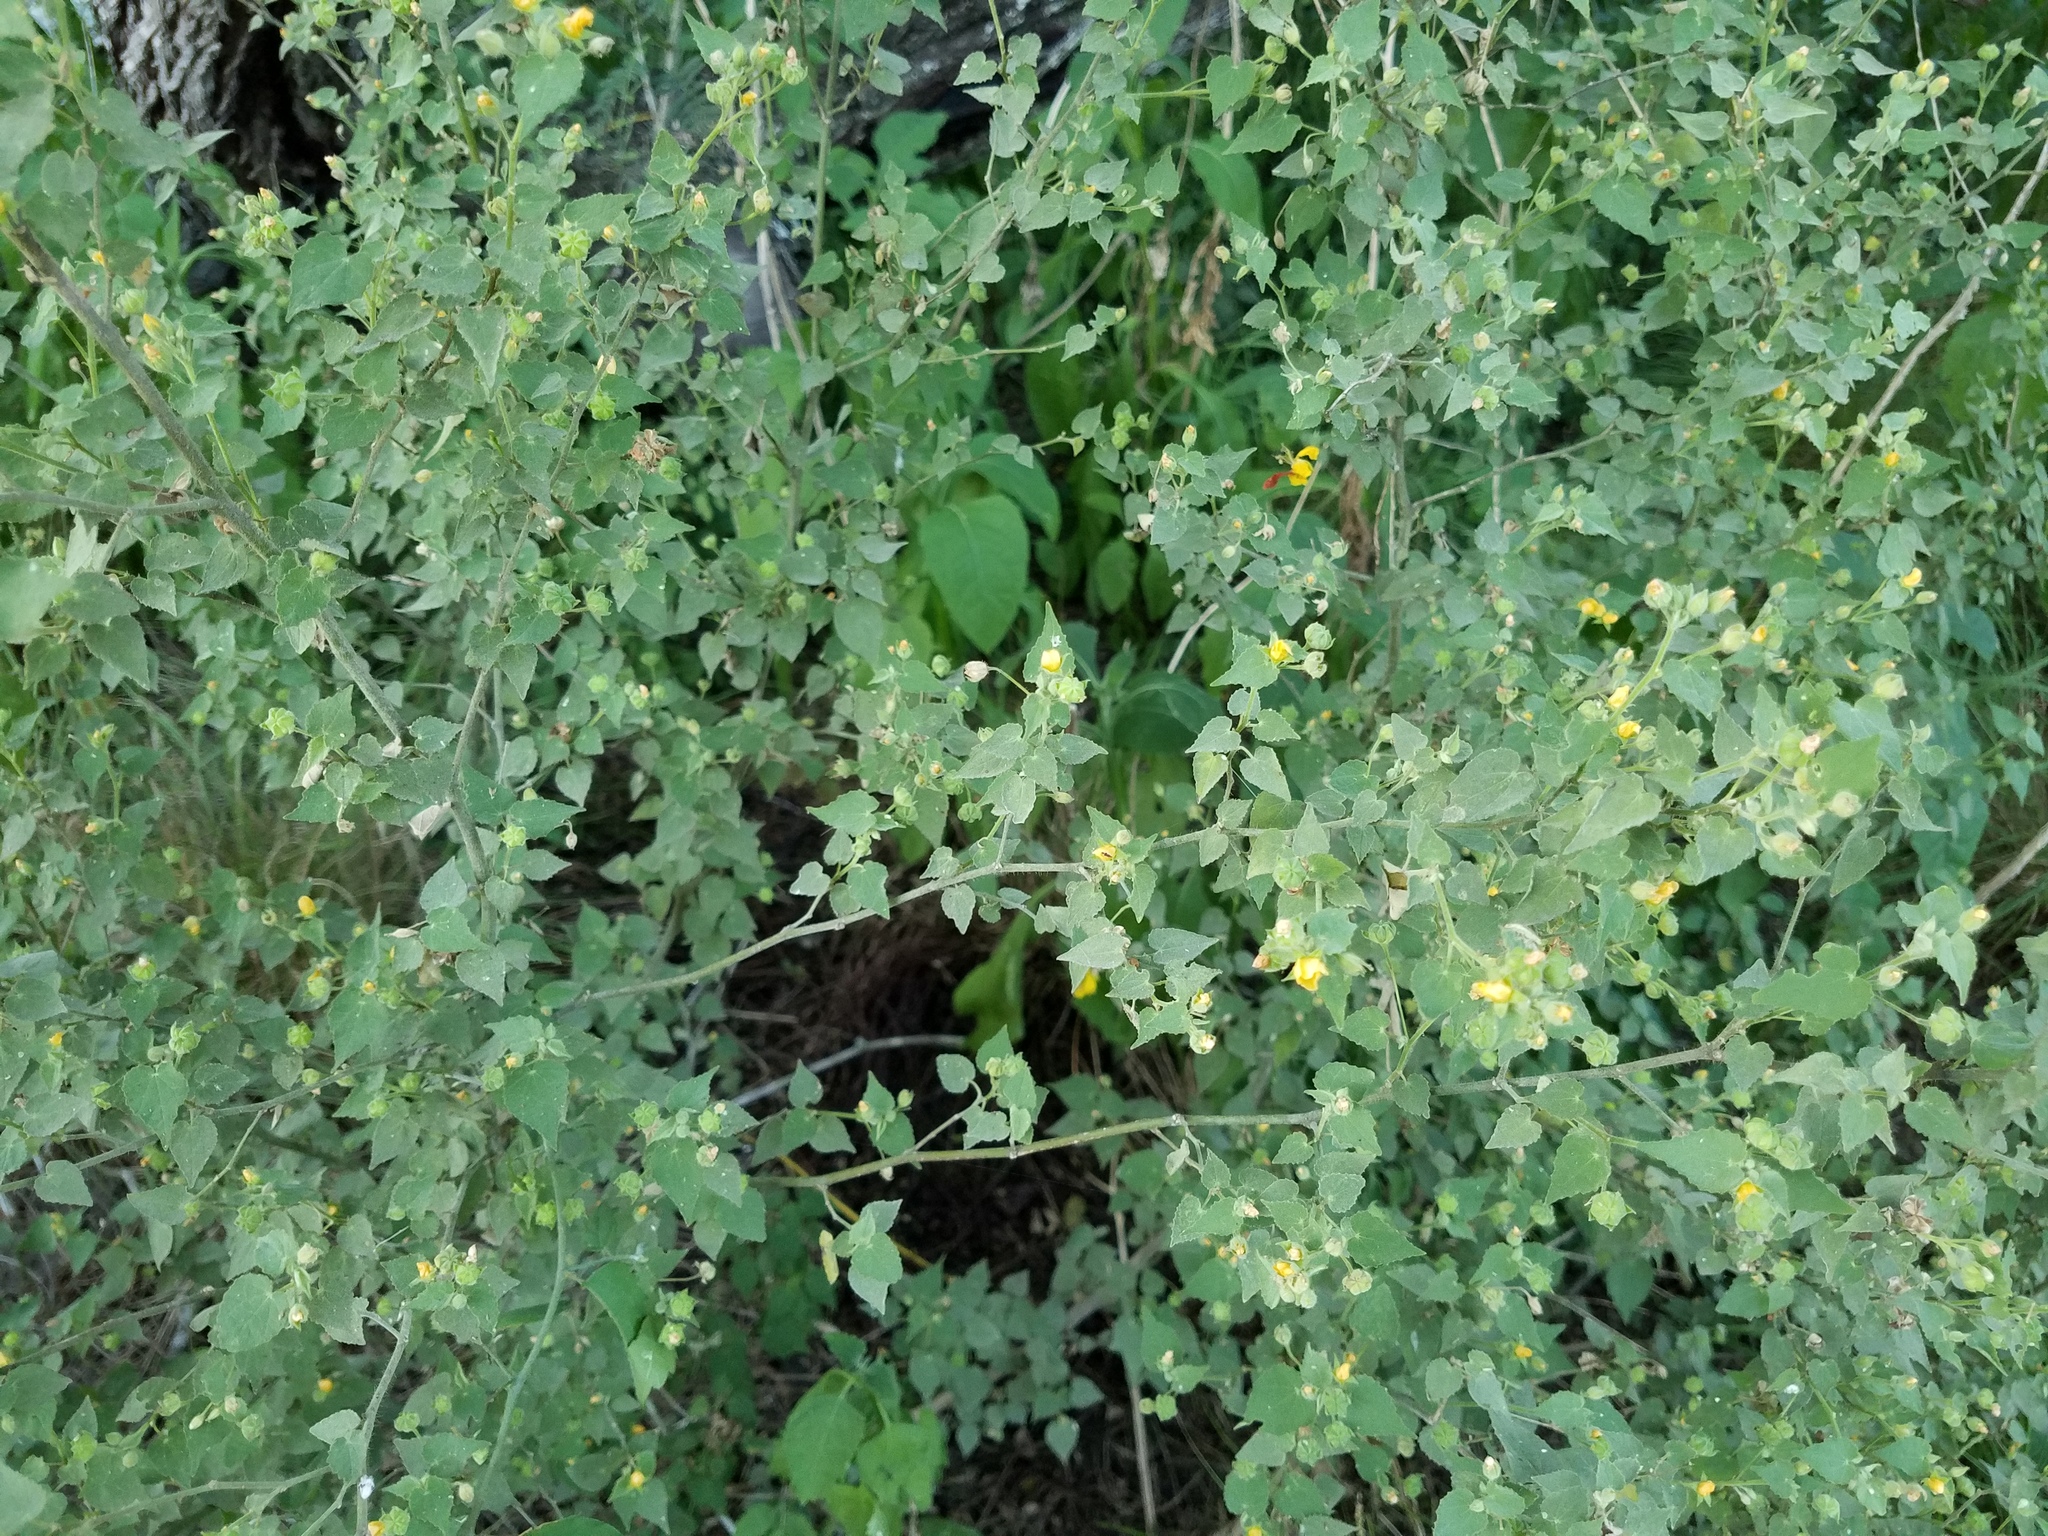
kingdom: Plantae
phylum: Tracheophyta
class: Magnoliopsida
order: Malvales
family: Malvaceae
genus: Abutilon
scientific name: Abutilon viscosum
